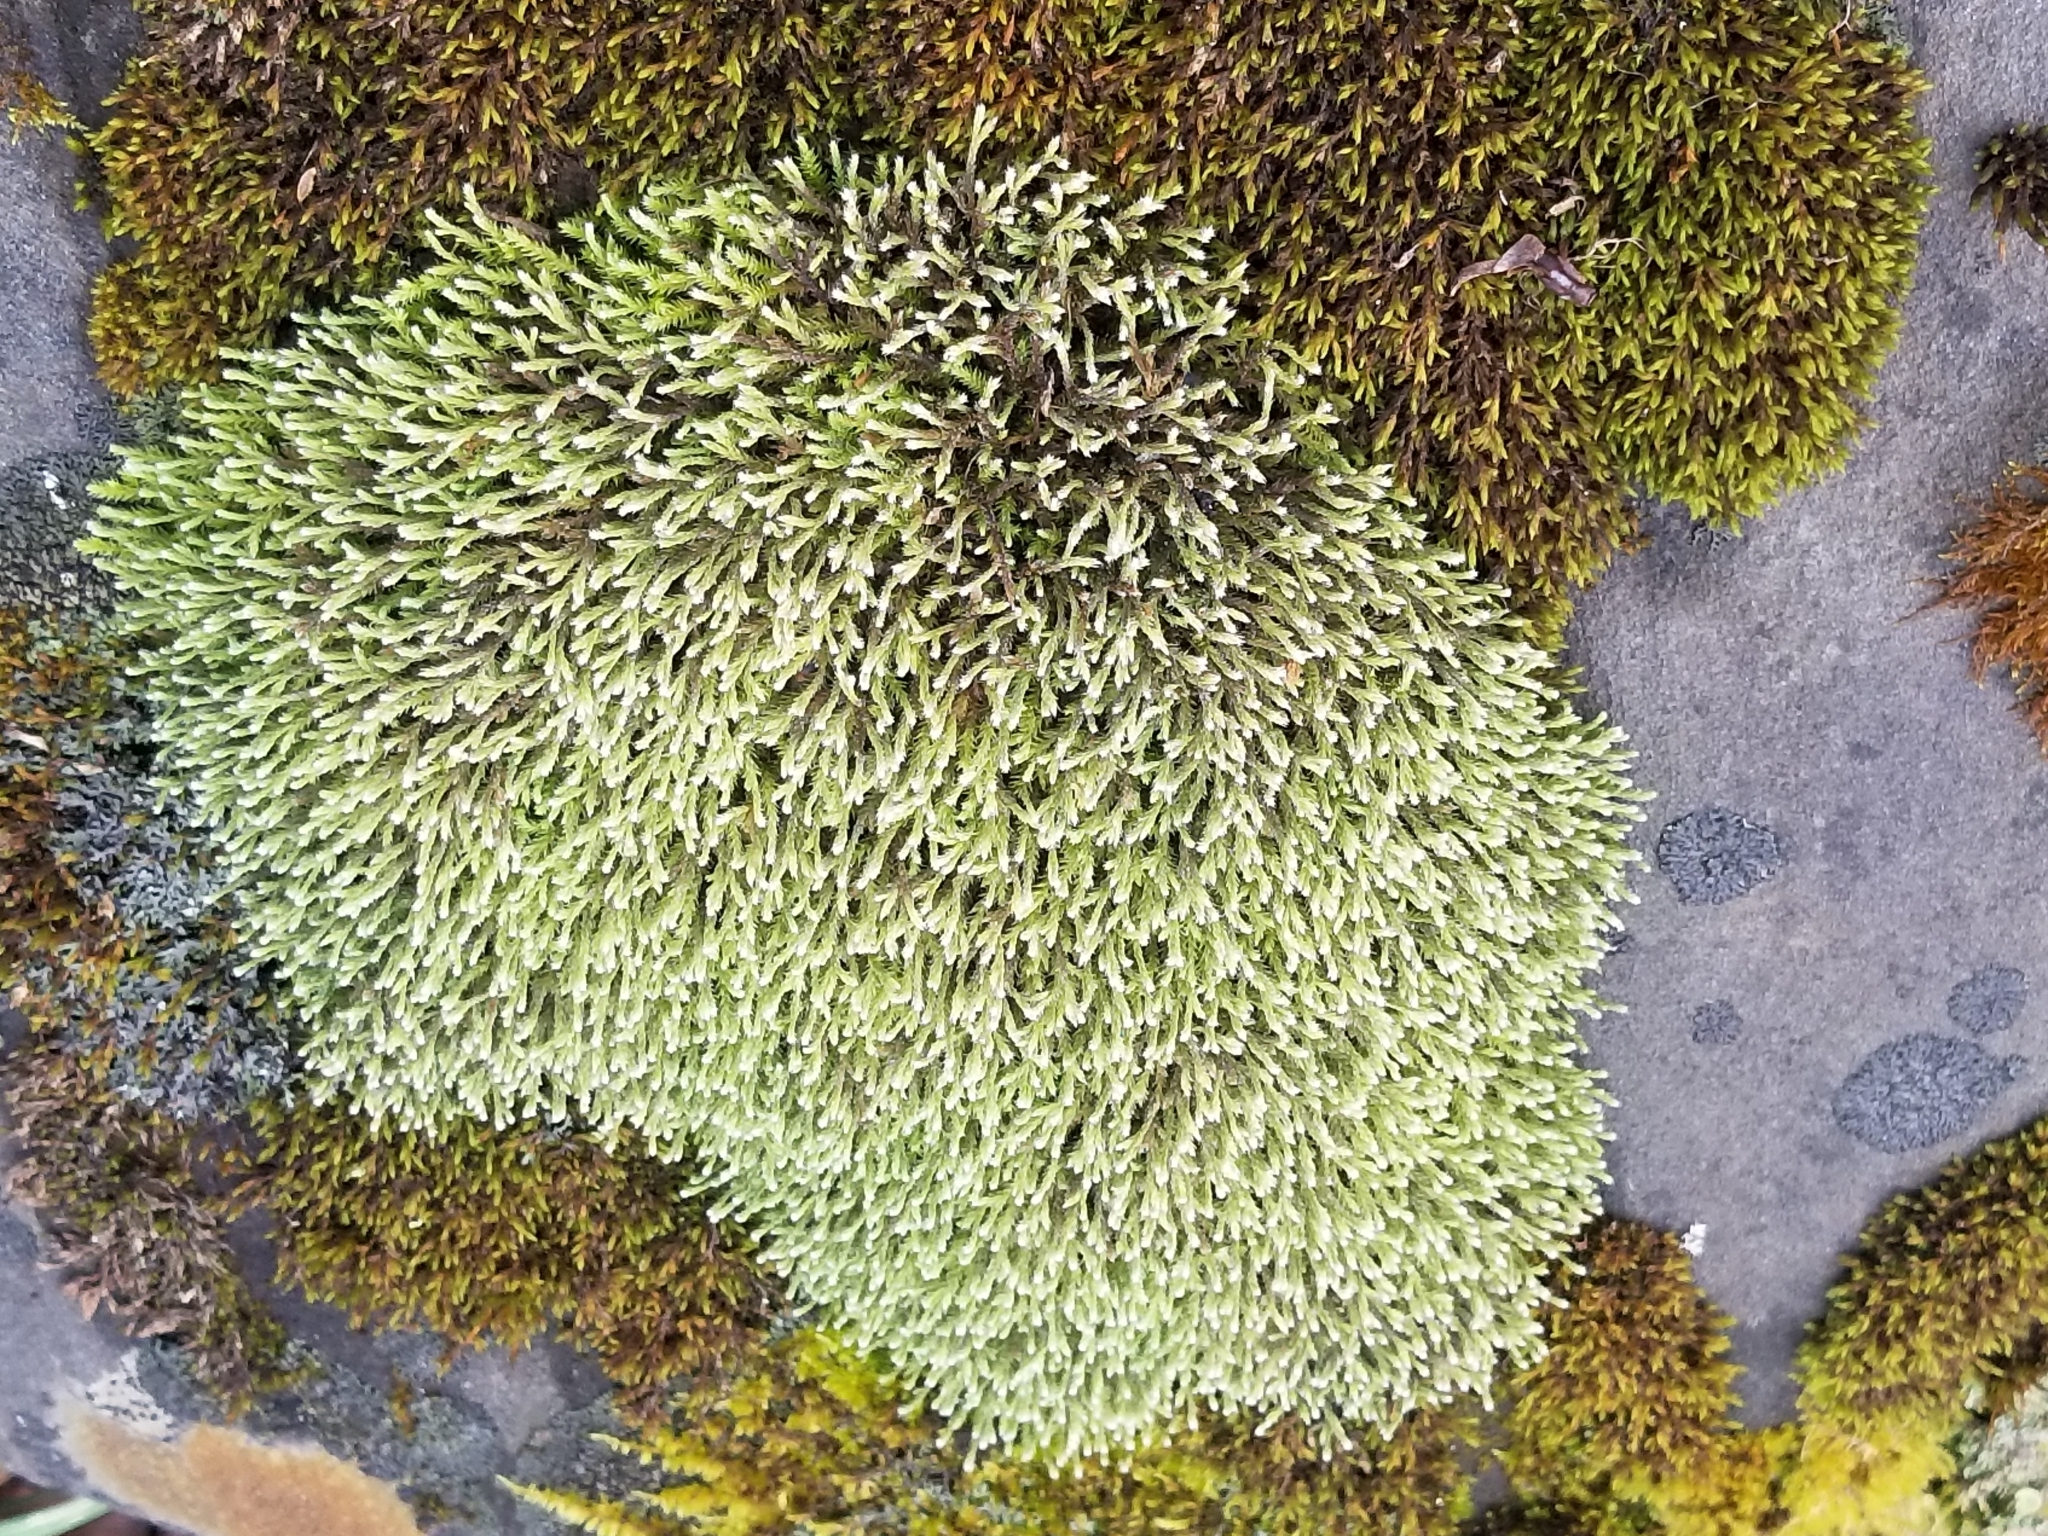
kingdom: Plantae
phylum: Bryophyta
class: Bryopsida
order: Hedwigiales
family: Hedwigiaceae
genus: Hedwigia
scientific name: Hedwigia ciliata
